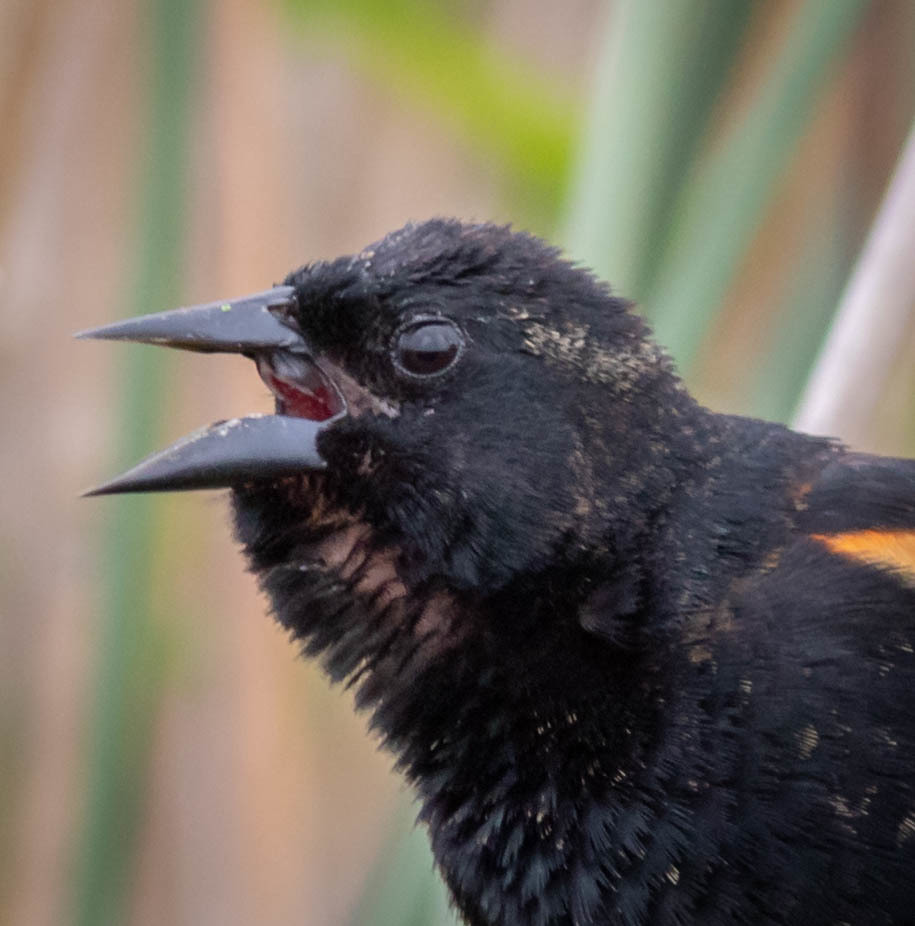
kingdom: Animalia
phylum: Chordata
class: Aves
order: Passeriformes
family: Icteridae
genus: Agelaius
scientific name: Agelaius phoeniceus
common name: Red-winged blackbird
